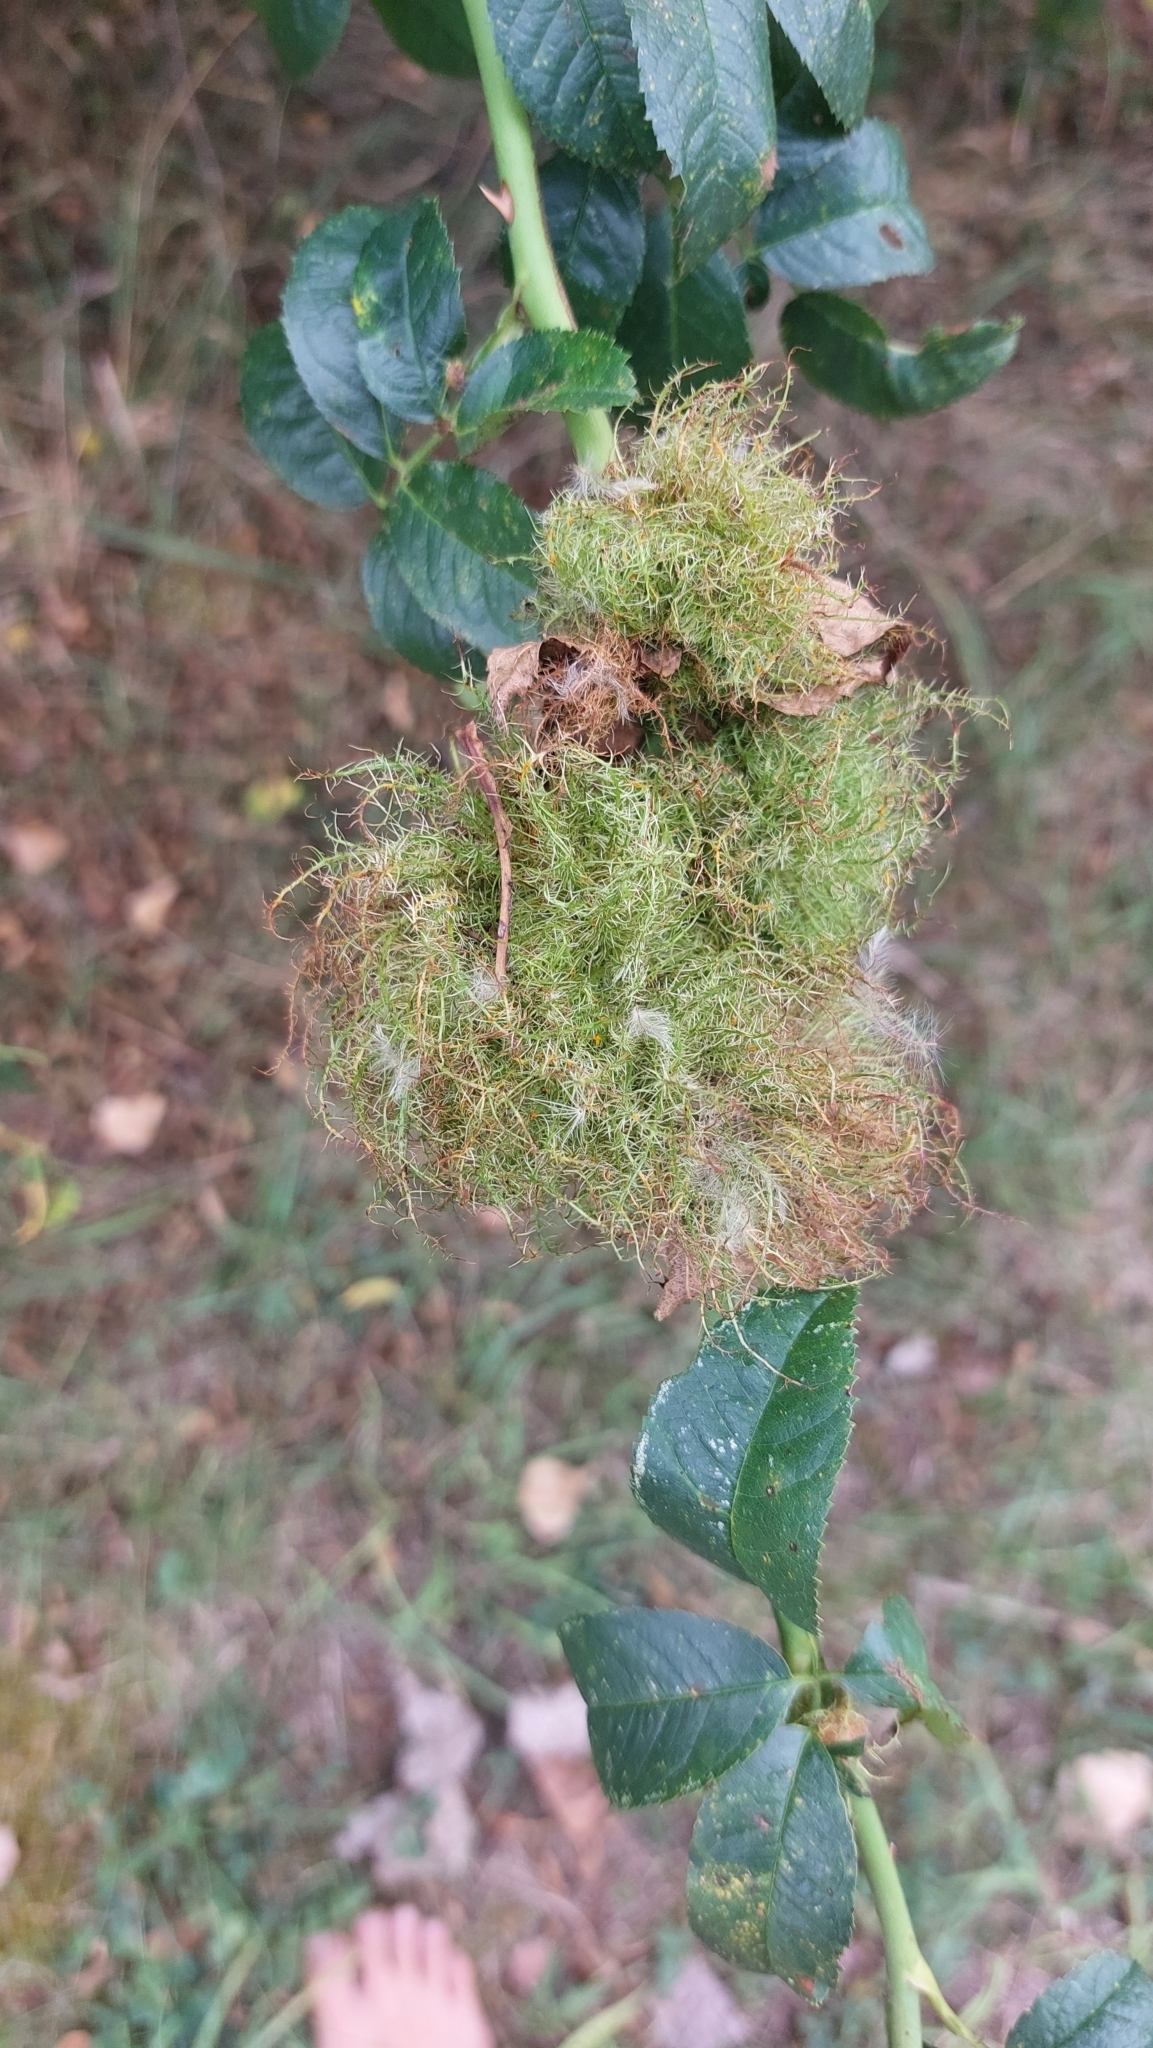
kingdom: Animalia
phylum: Arthropoda
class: Insecta
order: Hymenoptera
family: Cynipidae
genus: Diplolepis
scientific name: Diplolepis rosae
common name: Bedeguar gall
